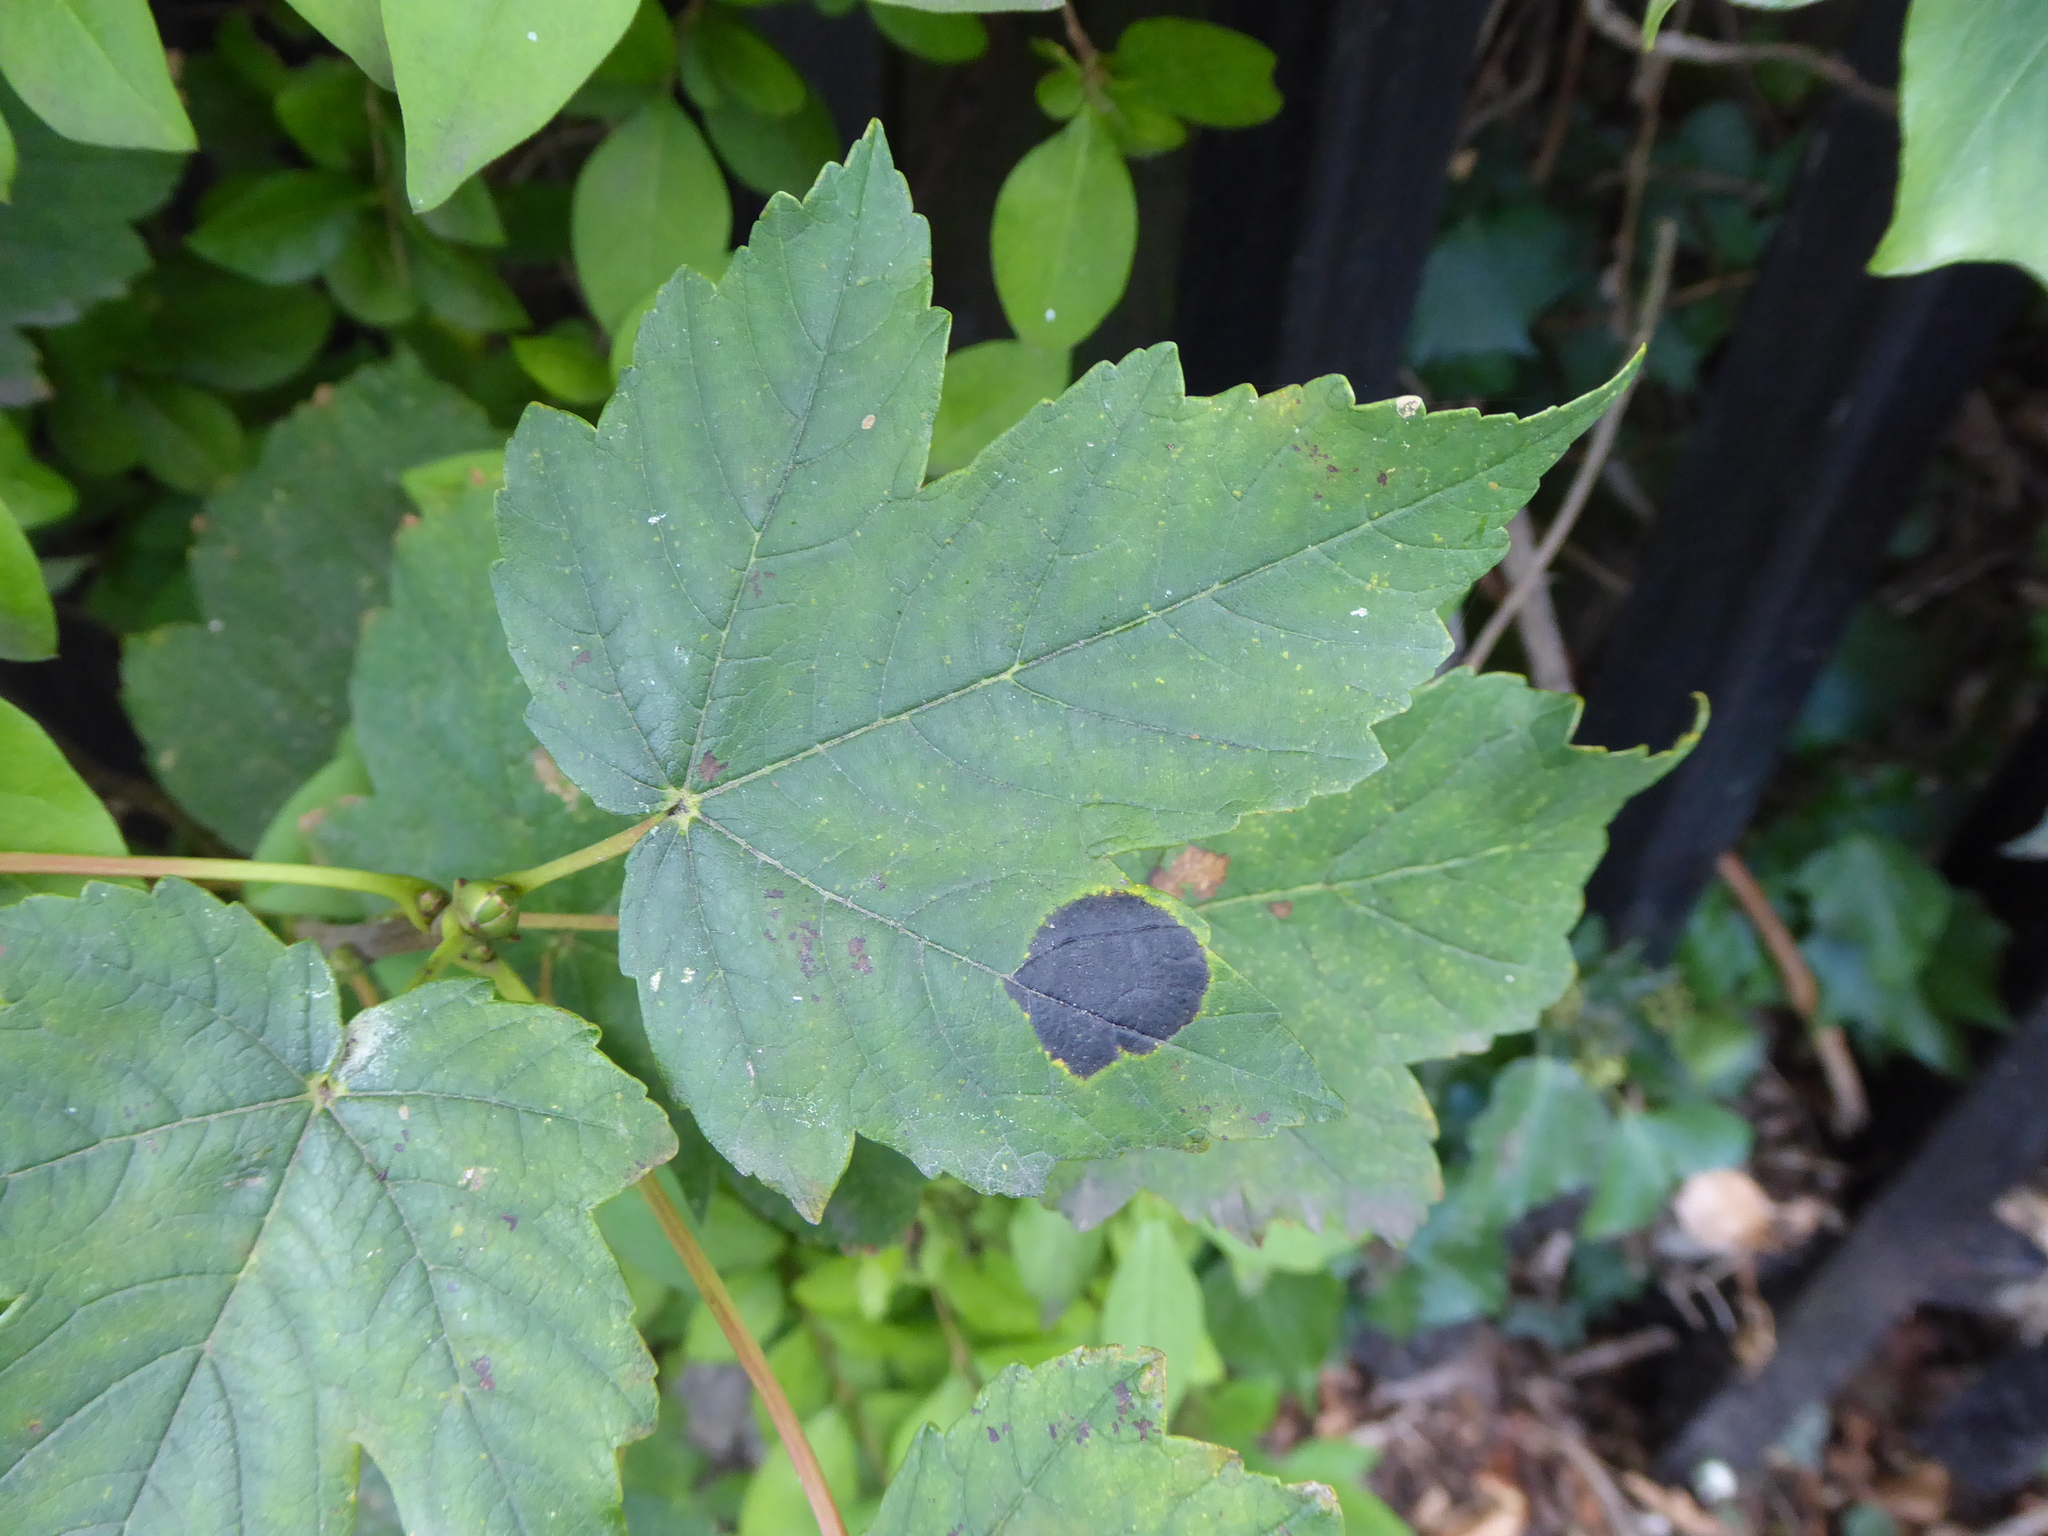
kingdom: Fungi
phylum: Ascomycota
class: Leotiomycetes
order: Rhytismatales
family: Rhytismataceae
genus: Rhytisma
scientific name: Rhytisma acerinum
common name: European tar spot
